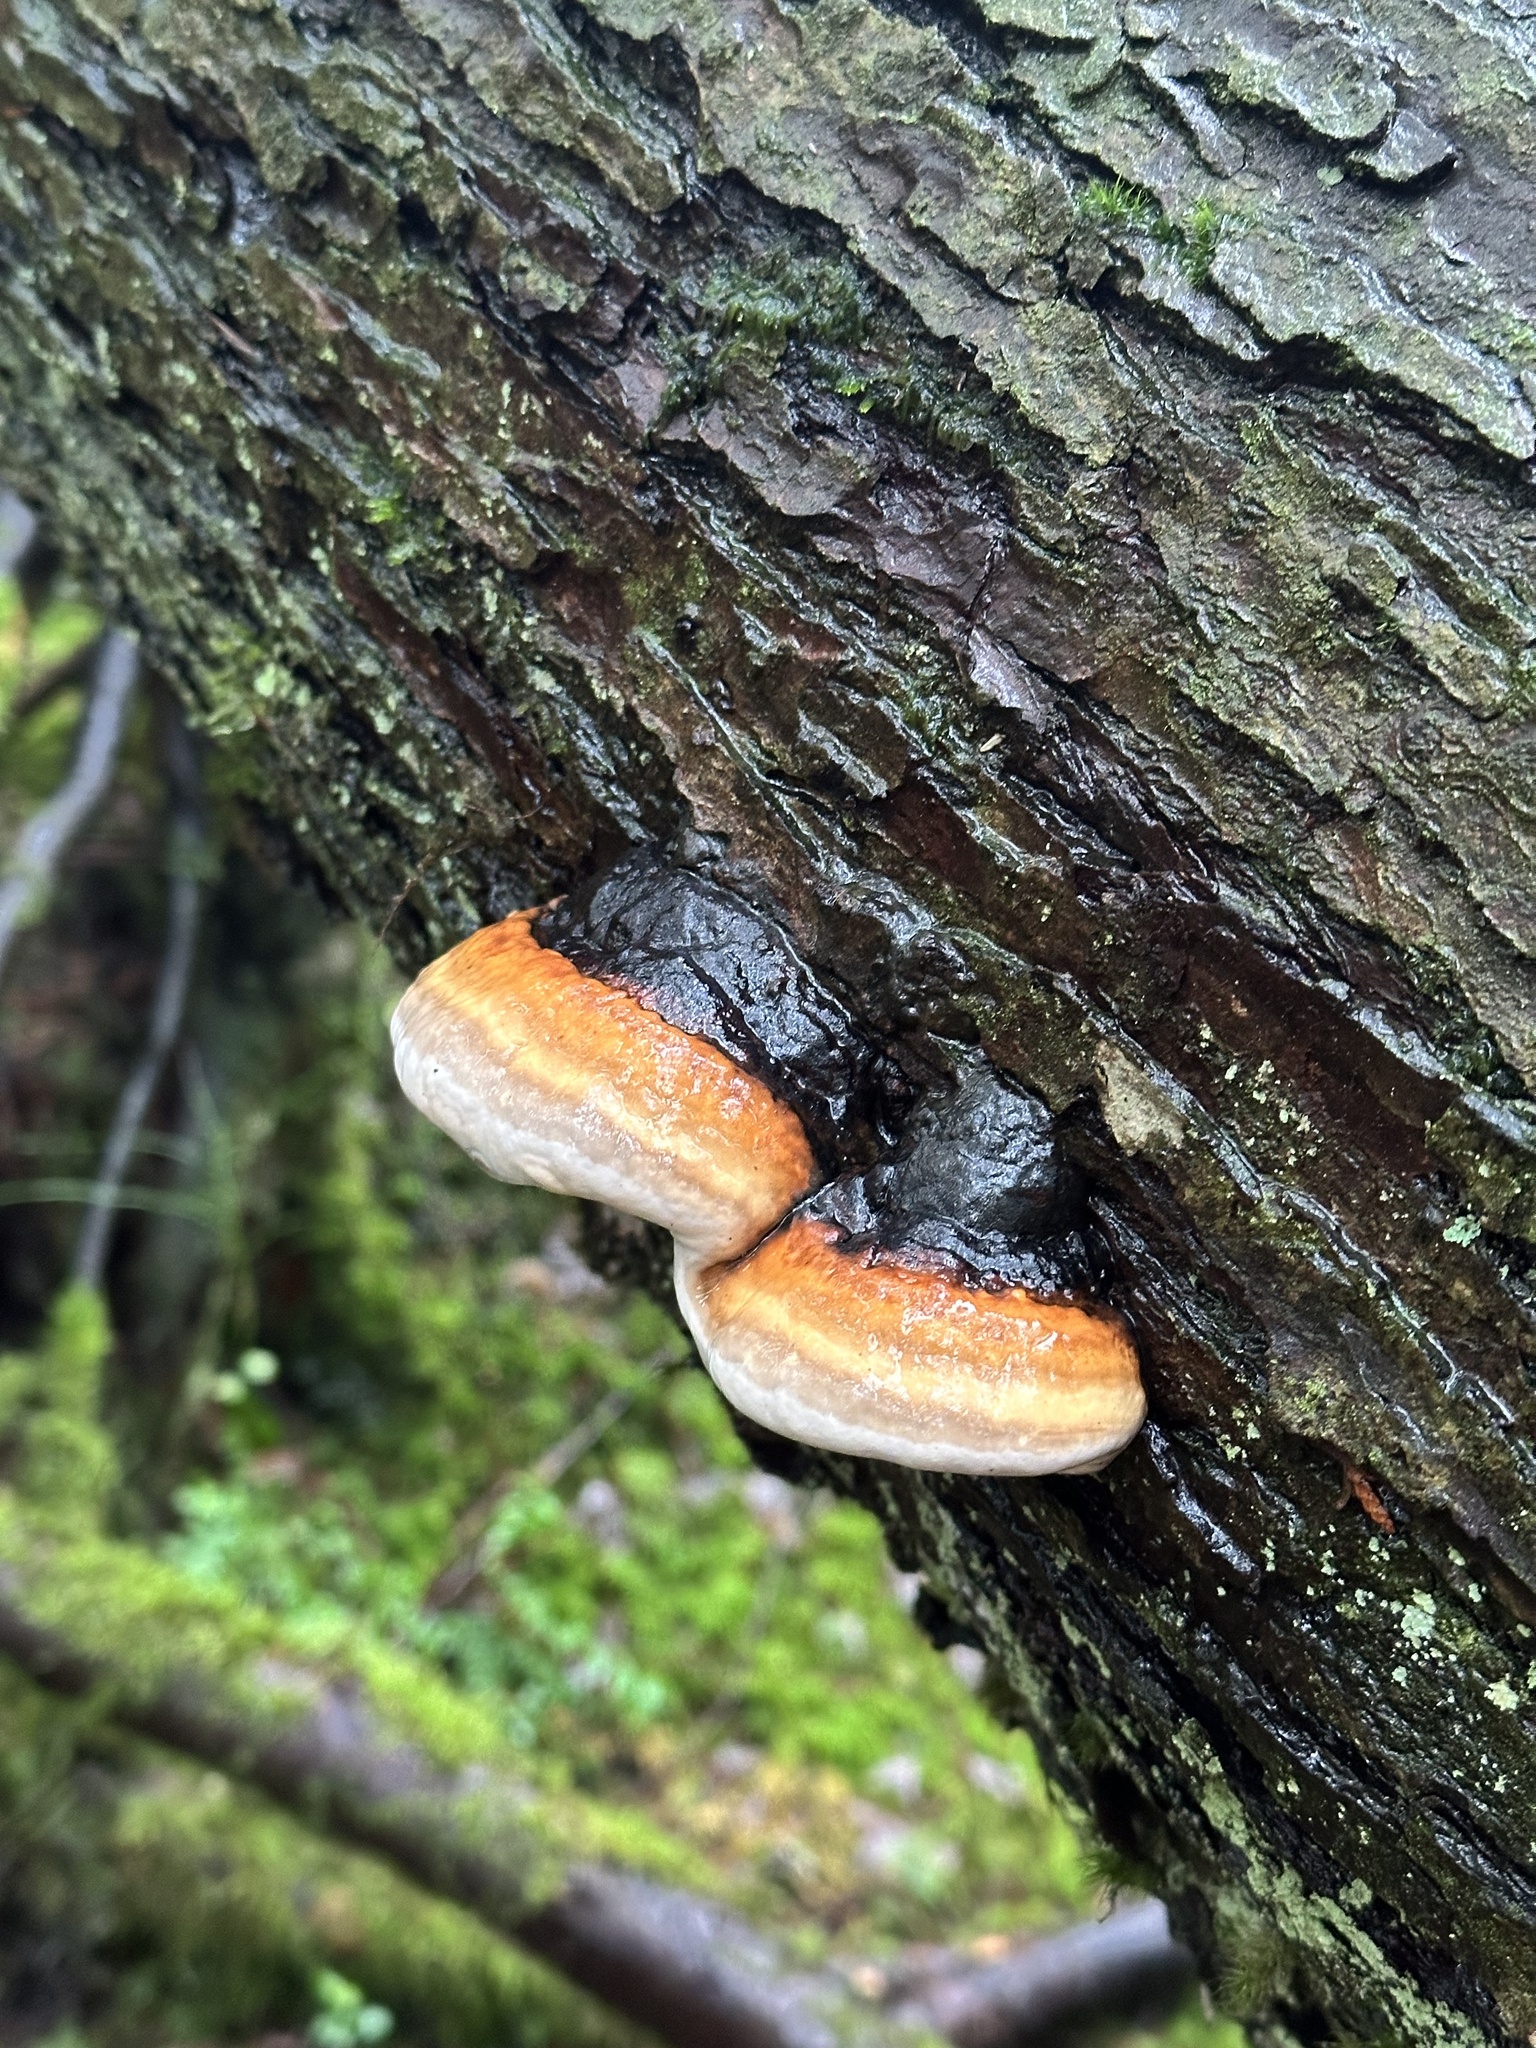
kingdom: Fungi
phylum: Basidiomycota
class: Agaricomycetes
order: Polyporales
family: Fomitopsidaceae
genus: Fomitopsis
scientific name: Fomitopsis mounceae
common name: Northern red belt
